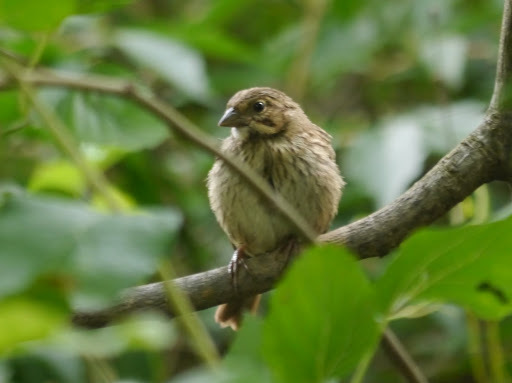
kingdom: Animalia
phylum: Chordata
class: Aves
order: Passeriformes
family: Passerellidae
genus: Melospiza
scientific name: Melospiza melodia
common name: Song sparrow
